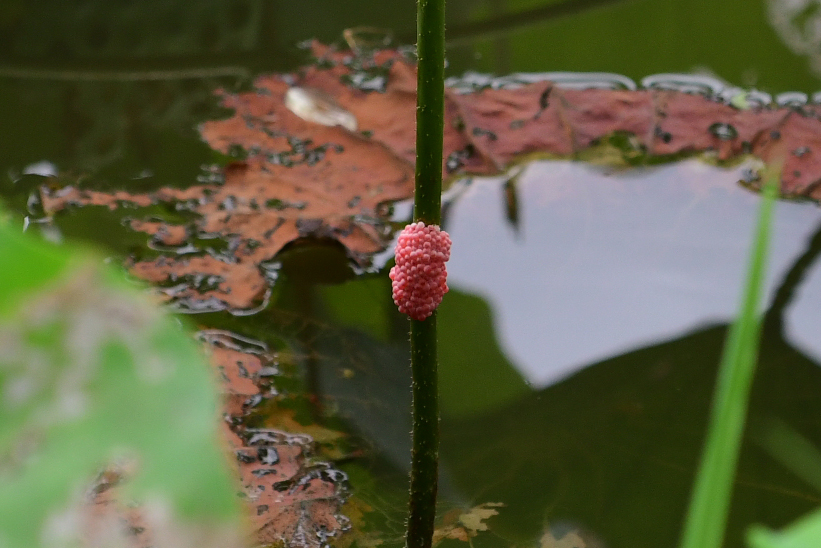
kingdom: Animalia
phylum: Mollusca
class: Gastropoda
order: Architaenioglossa
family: Ampullariidae
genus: Pomacea
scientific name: Pomacea canaliculata
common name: Channeled applesnail
